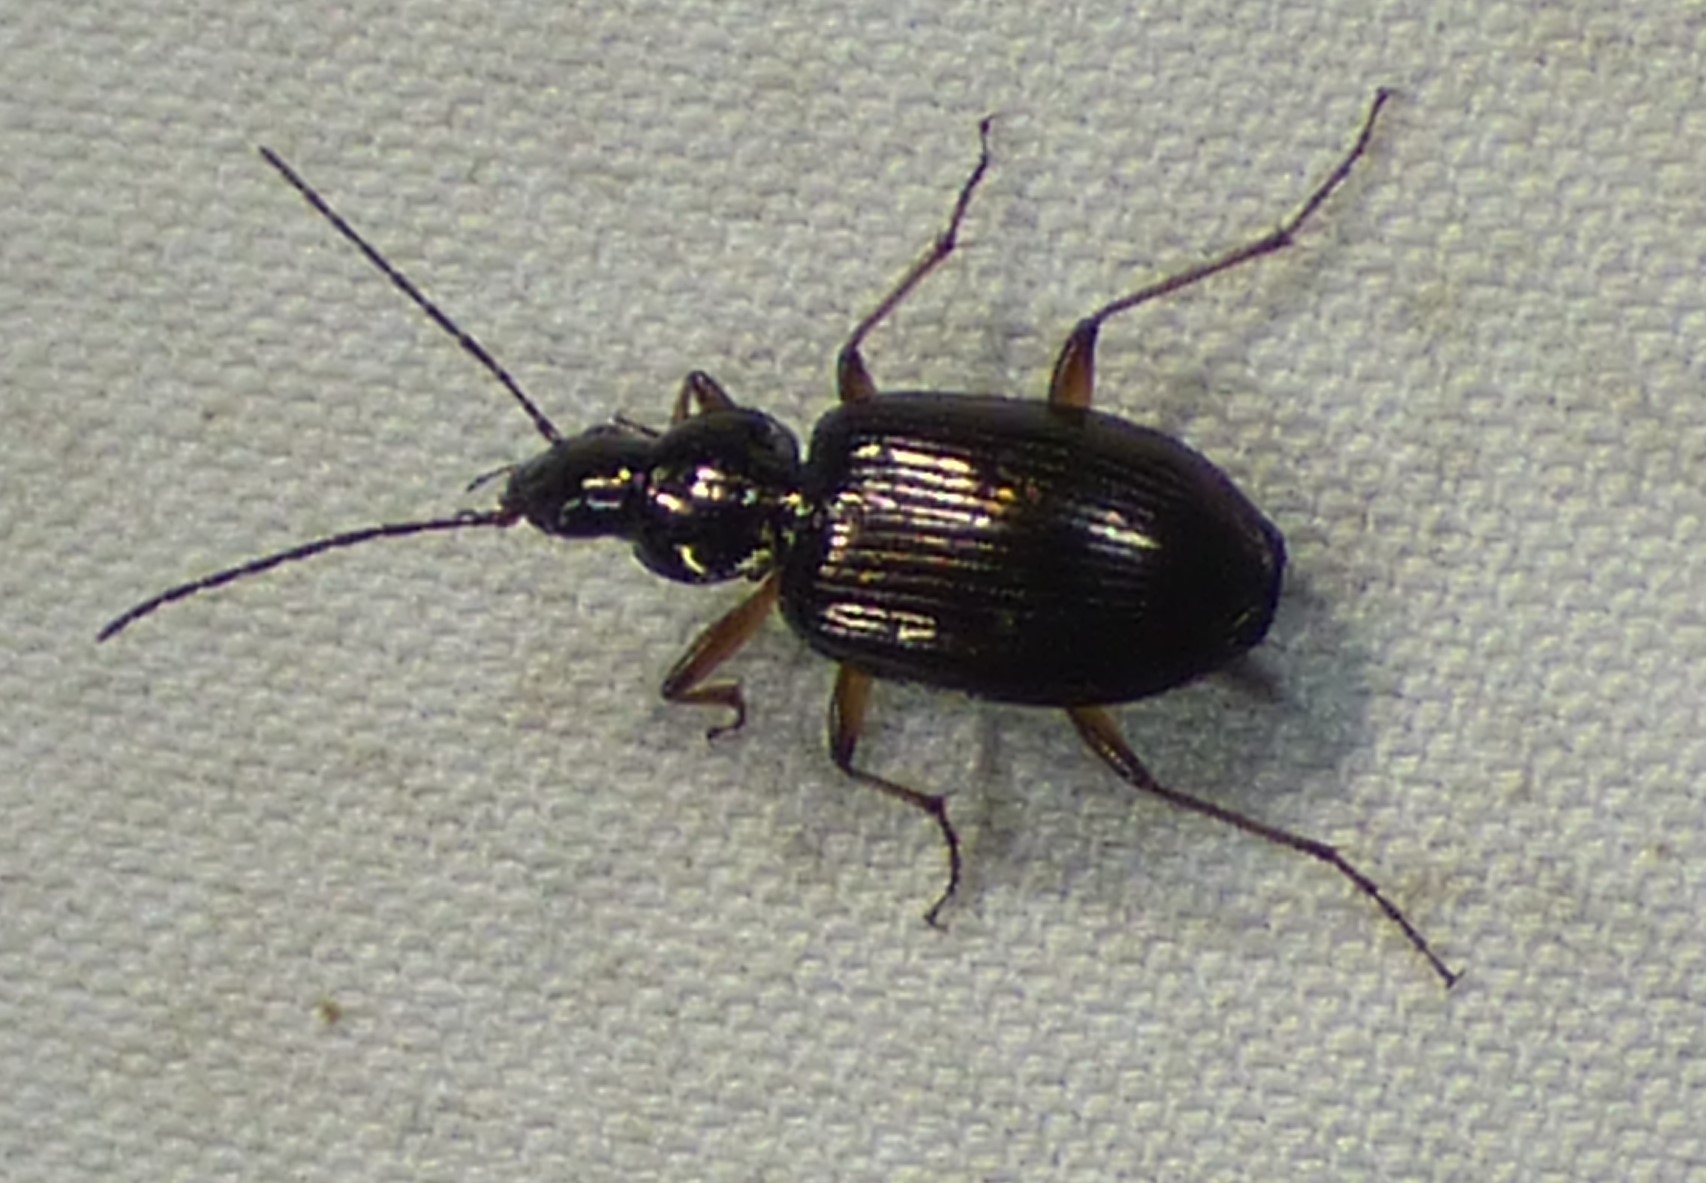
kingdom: Animalia
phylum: Arthropoda
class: Insecta
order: Coleoptera
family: Carabidae
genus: Agonum
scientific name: Agonum striatopunctatum
